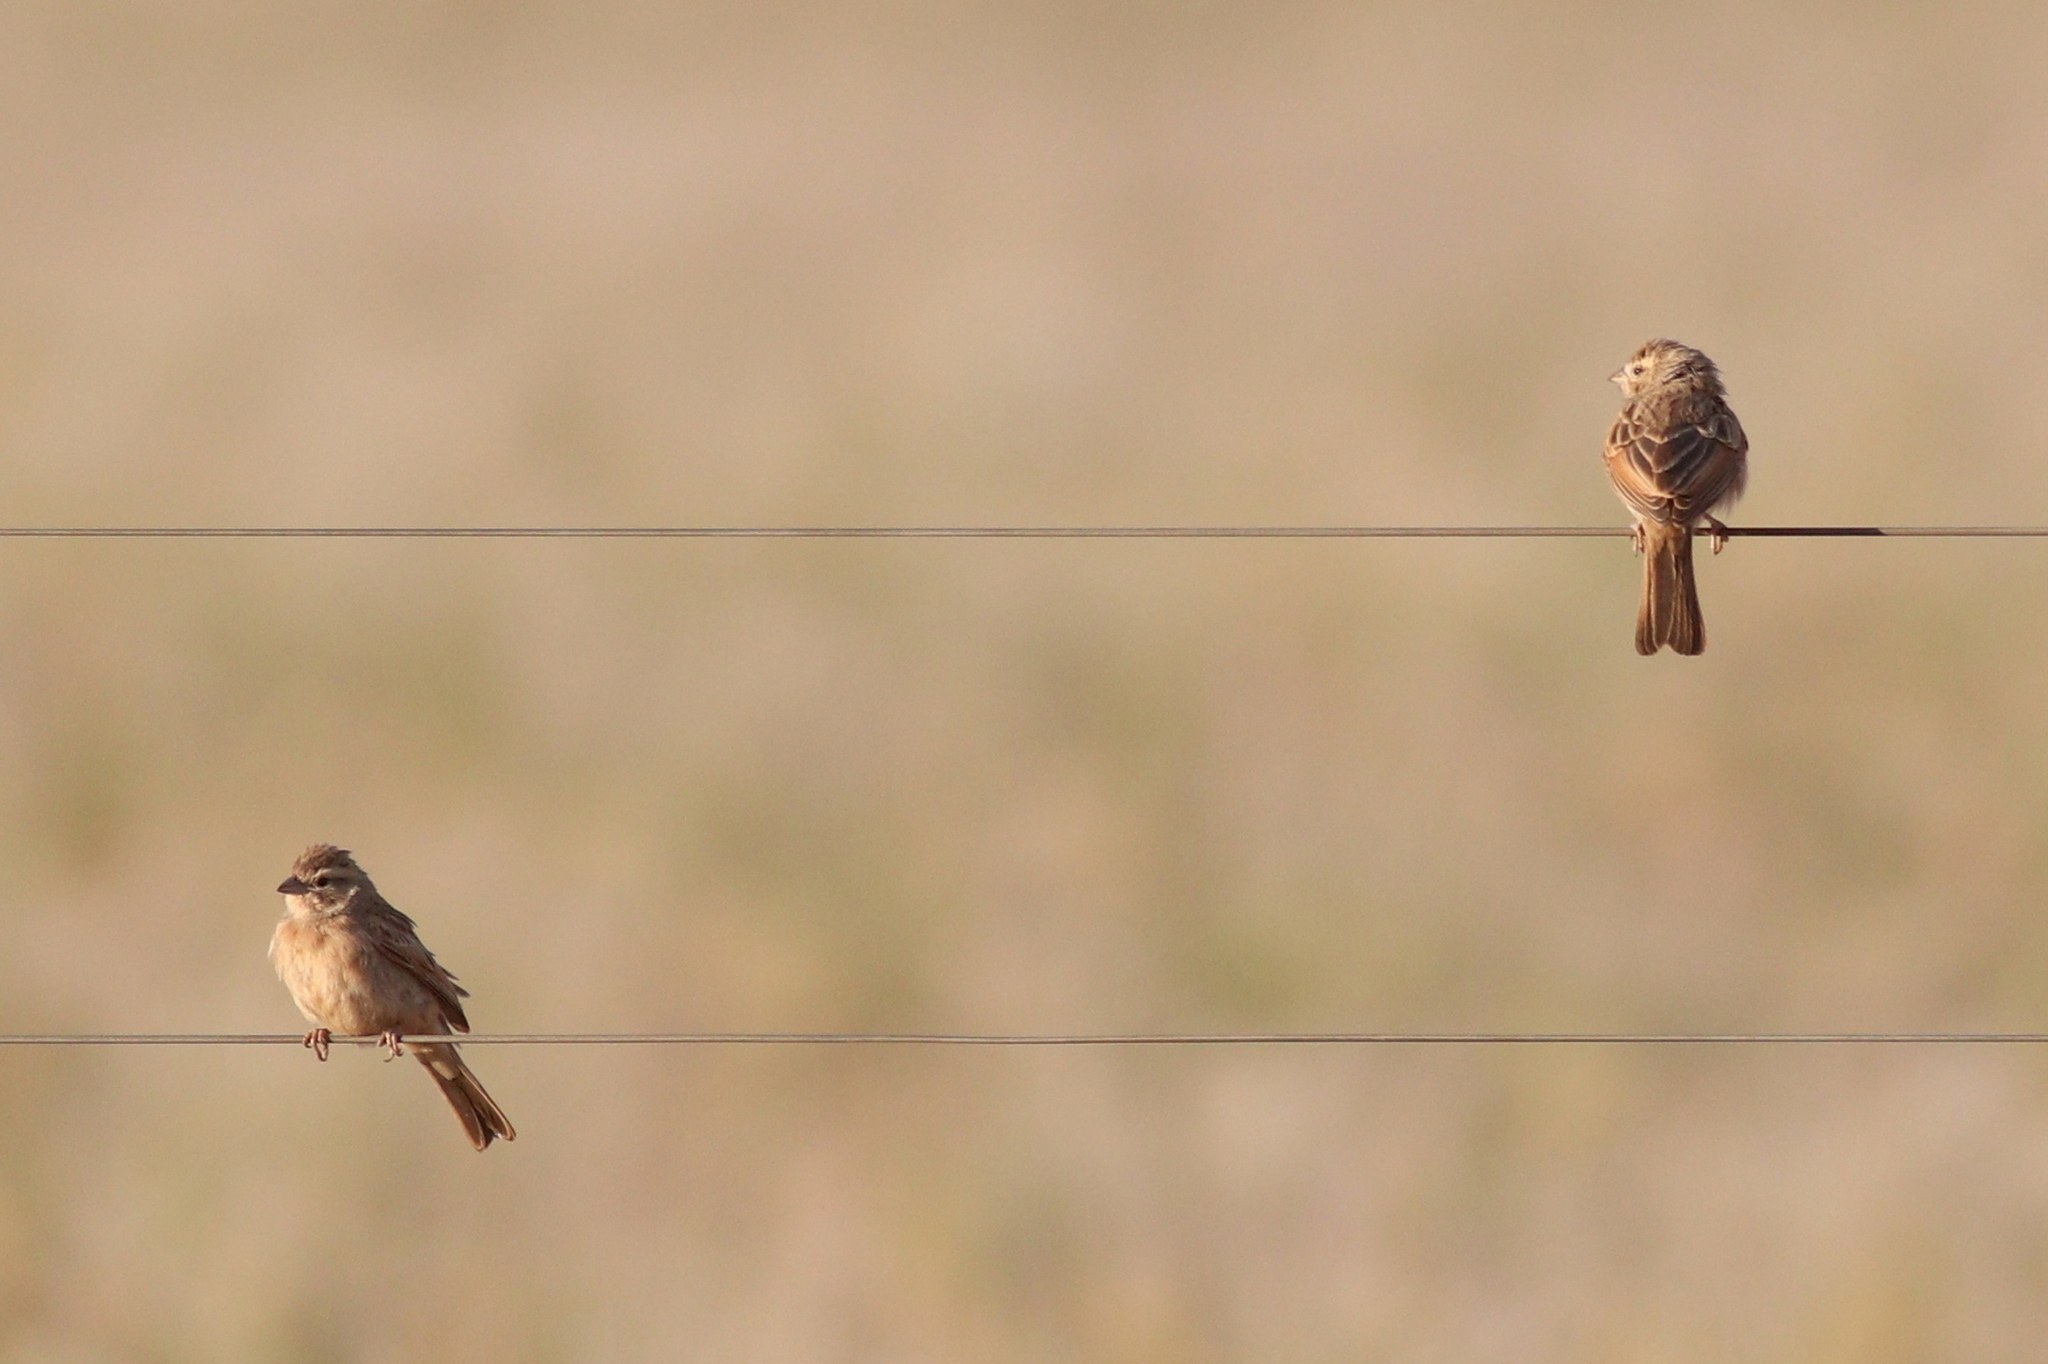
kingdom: Animalia
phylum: Chordata
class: Aves
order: Passeriformes
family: Emberizidae
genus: Emberiza
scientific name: Emberiza impetuani
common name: Lark-like bunting
